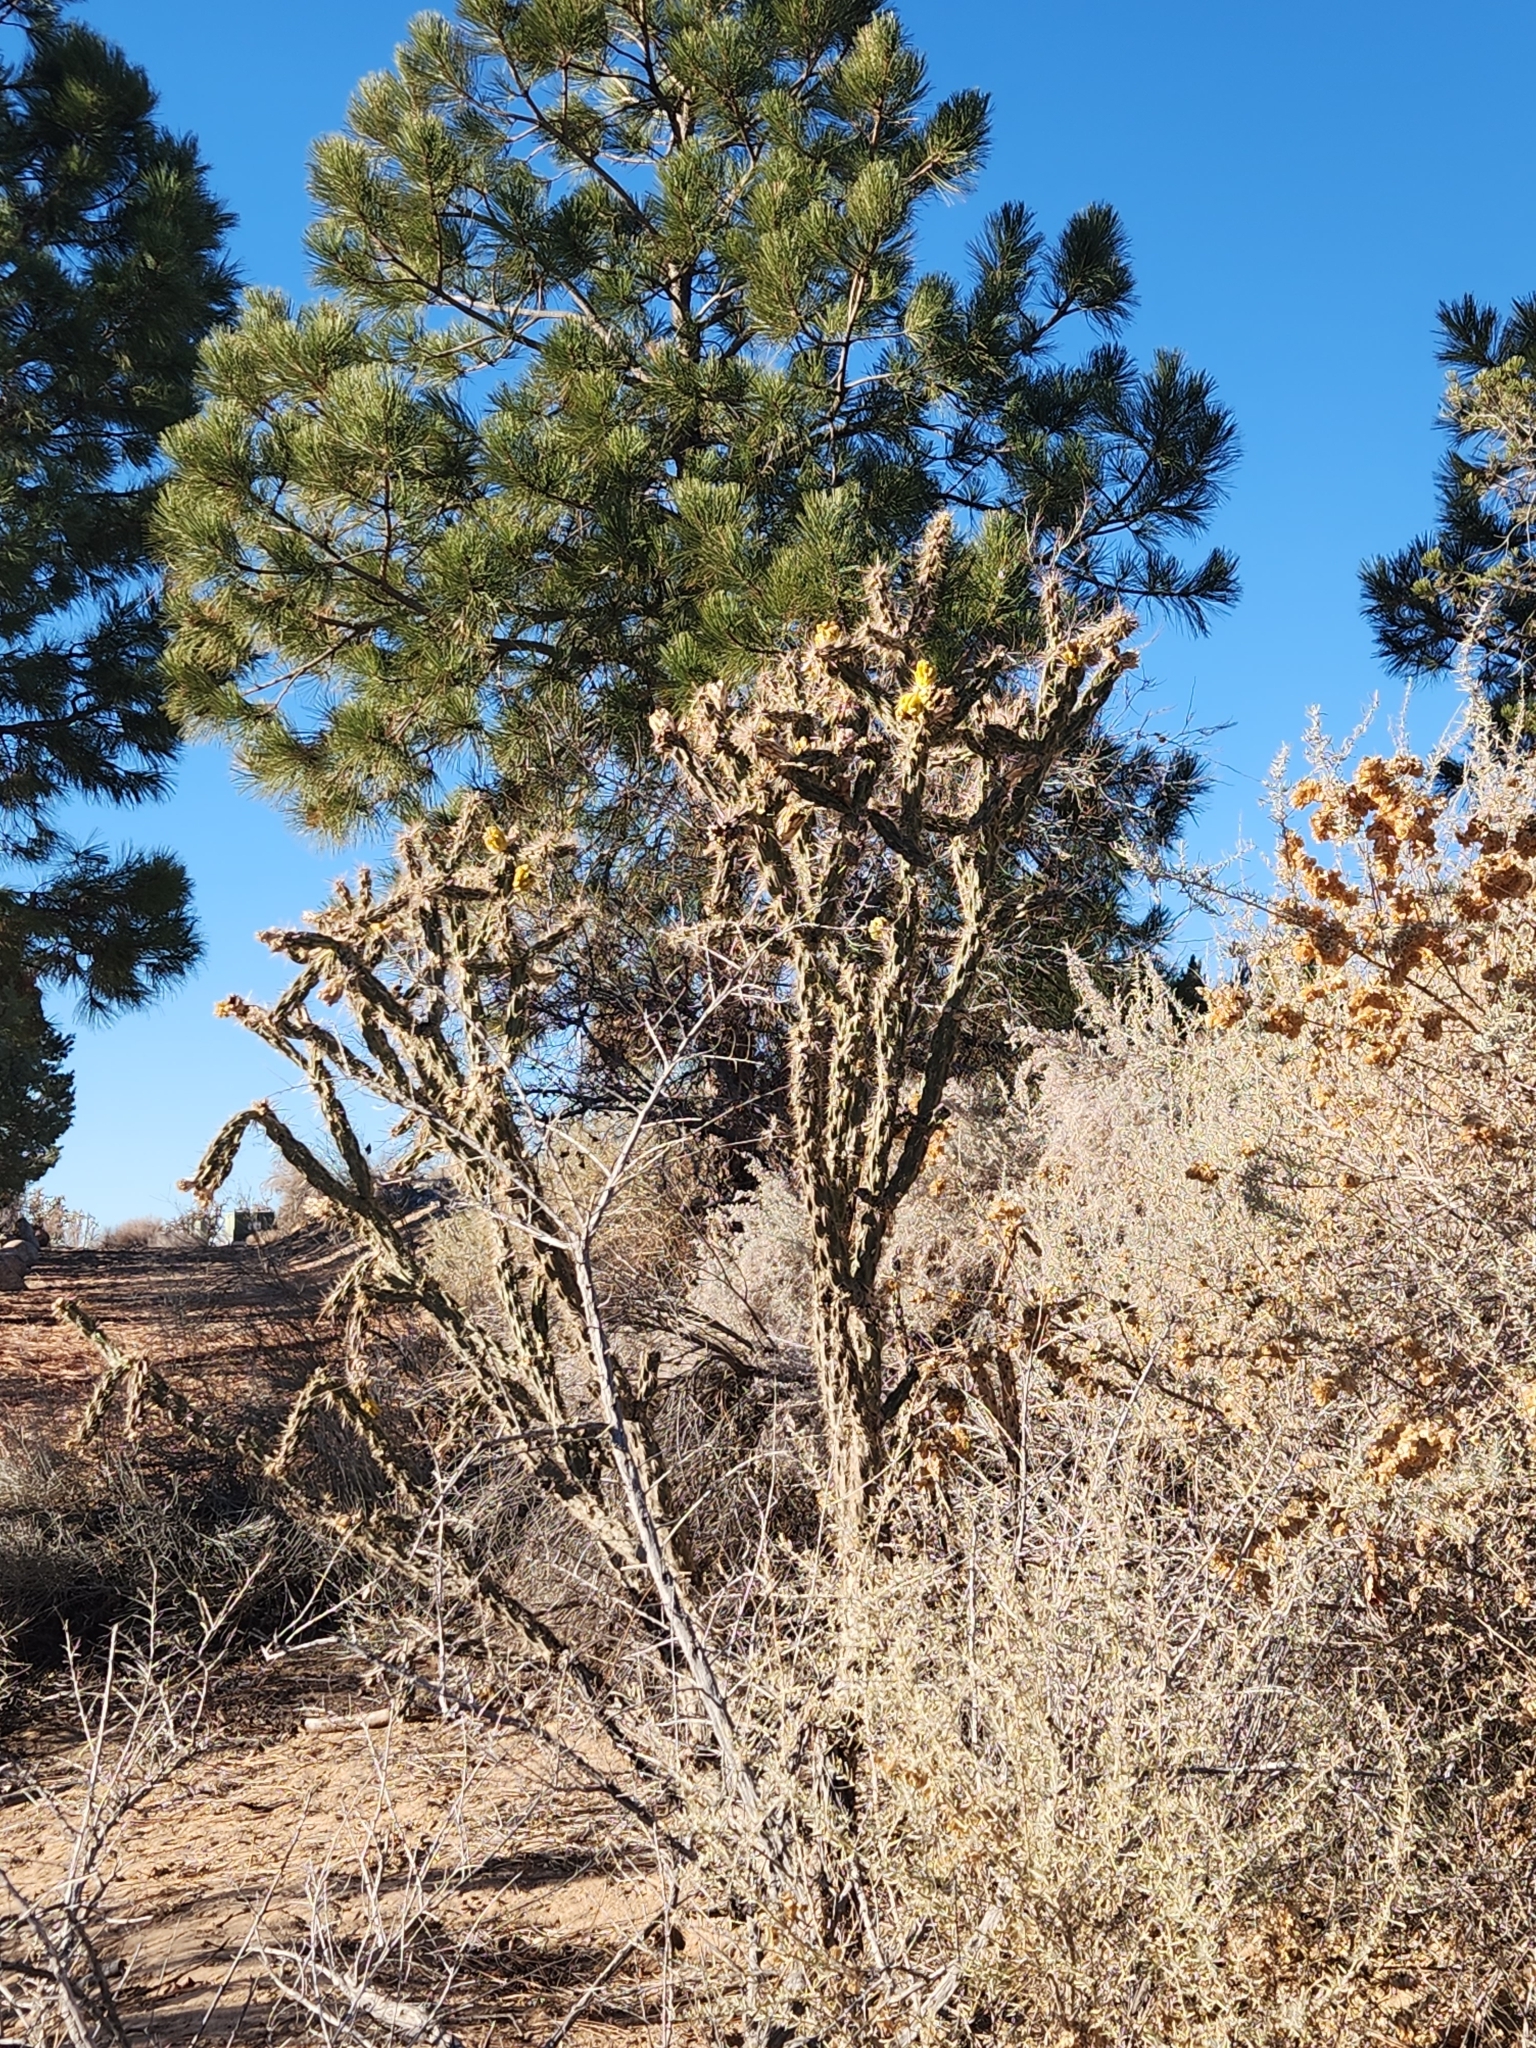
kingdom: Plantae
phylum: Tracheophyta
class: Magnoliopsida
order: Caryophyllales
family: Cactaceae
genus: Cylindropuntia
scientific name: Cylindropuntia imbricata
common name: Candelabrum cactus
